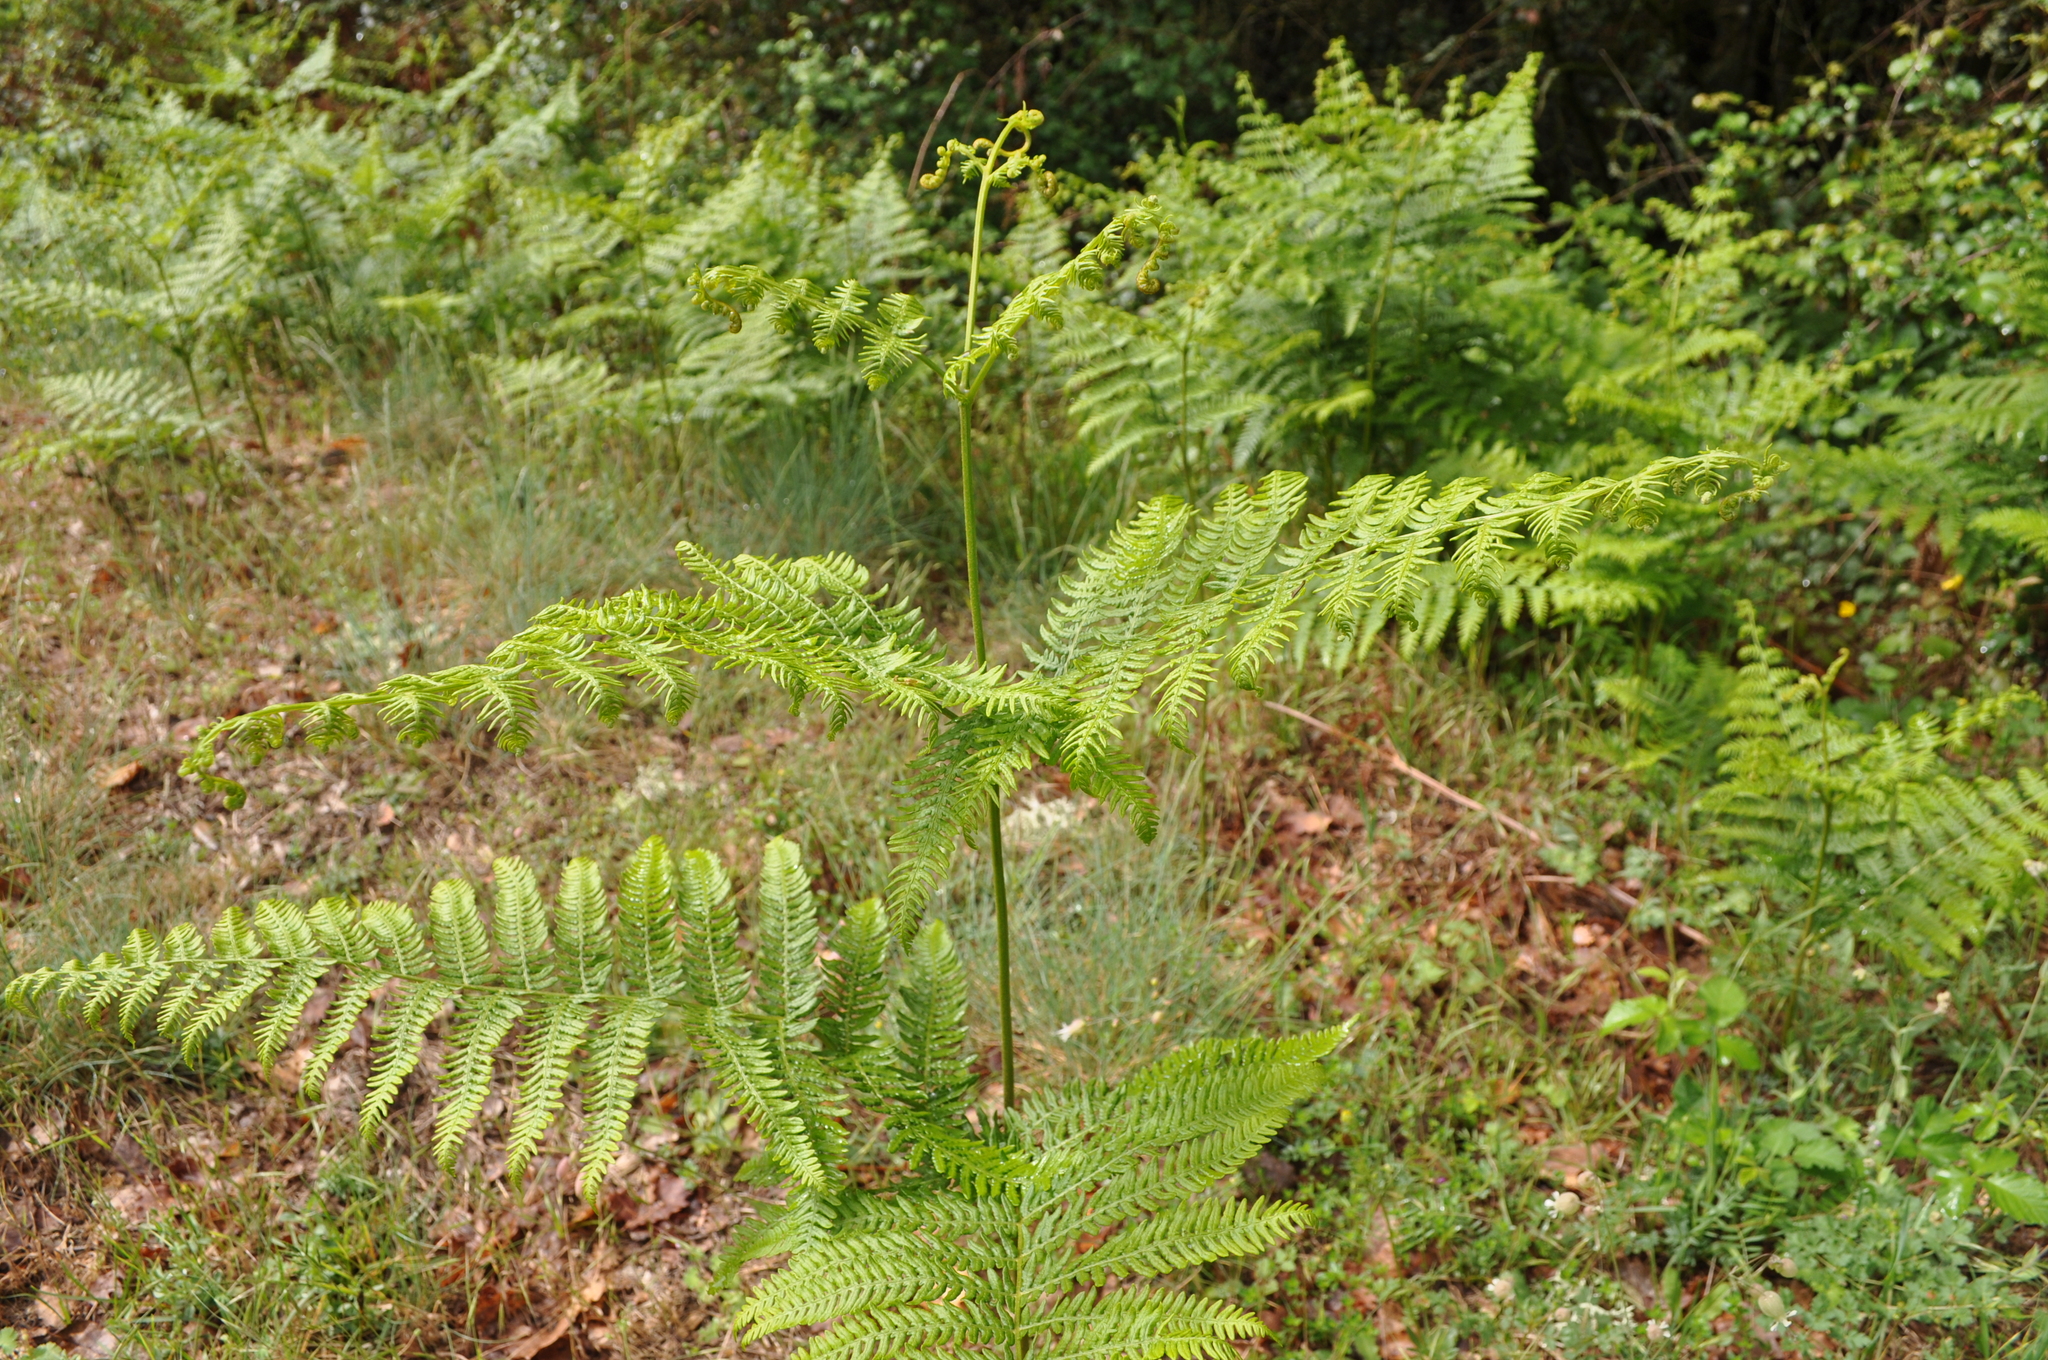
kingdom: Plantae
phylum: Tracheophyta
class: Polypodiopsida
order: Polypodiales
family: Dennstaedtiaceae
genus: Pteridium
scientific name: Pteridium aquilinum
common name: Bracken
